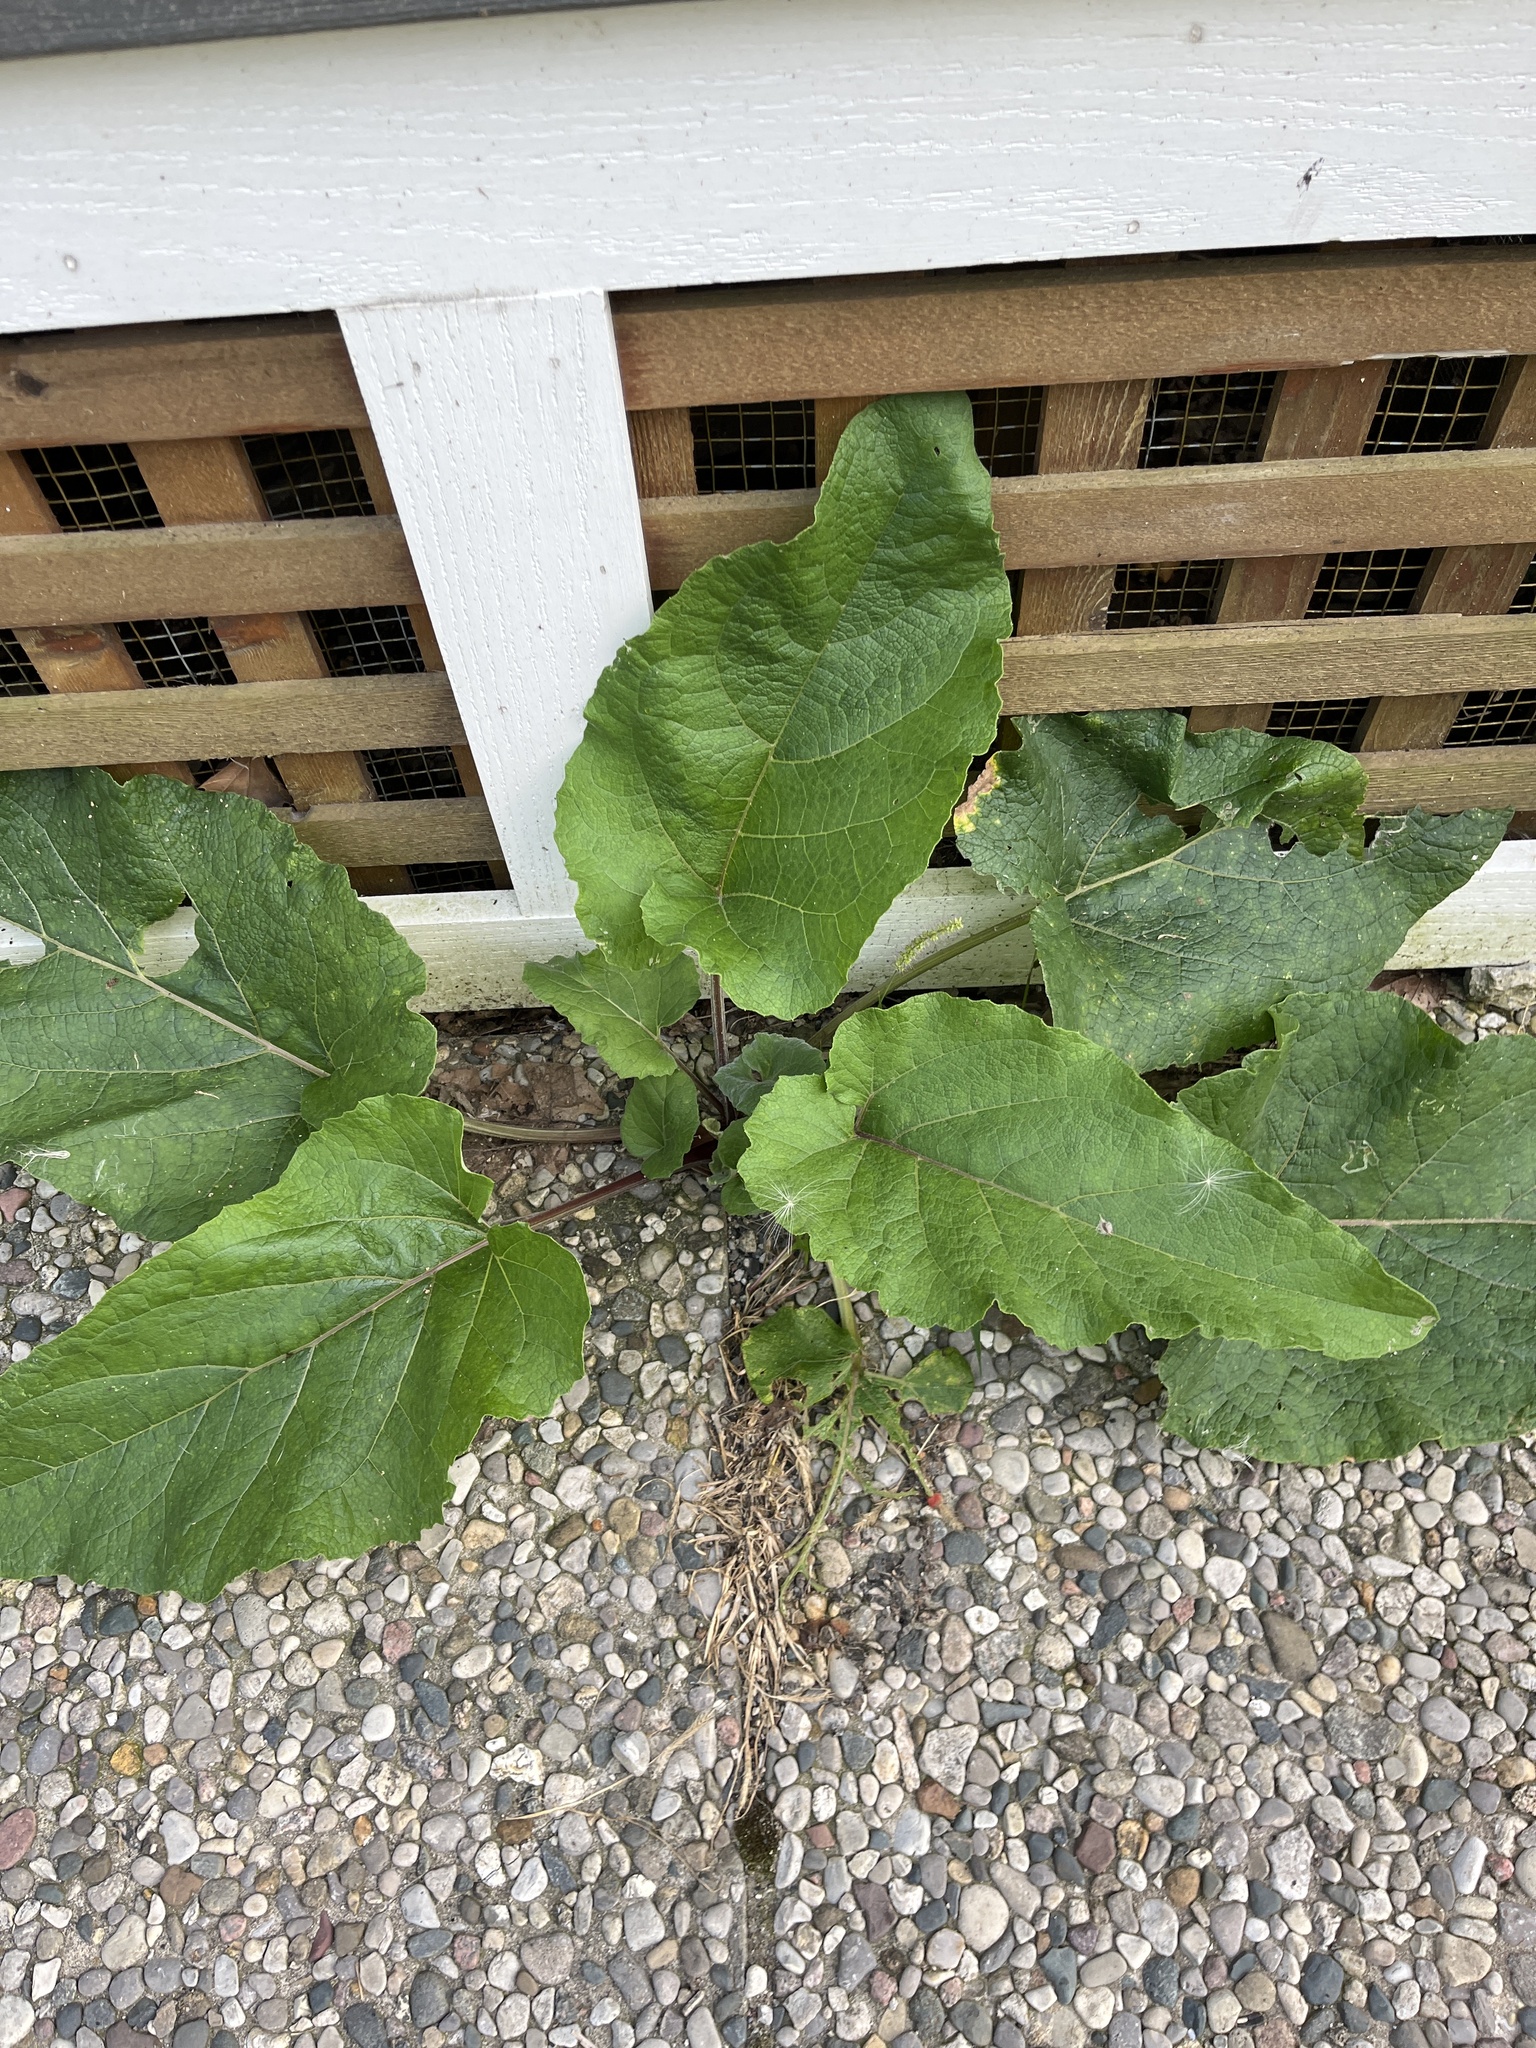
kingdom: Plantae
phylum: Tracheophyta
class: Magnoliopsida
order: Asterales
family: Asteraceae
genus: Arctium
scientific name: Arctium
